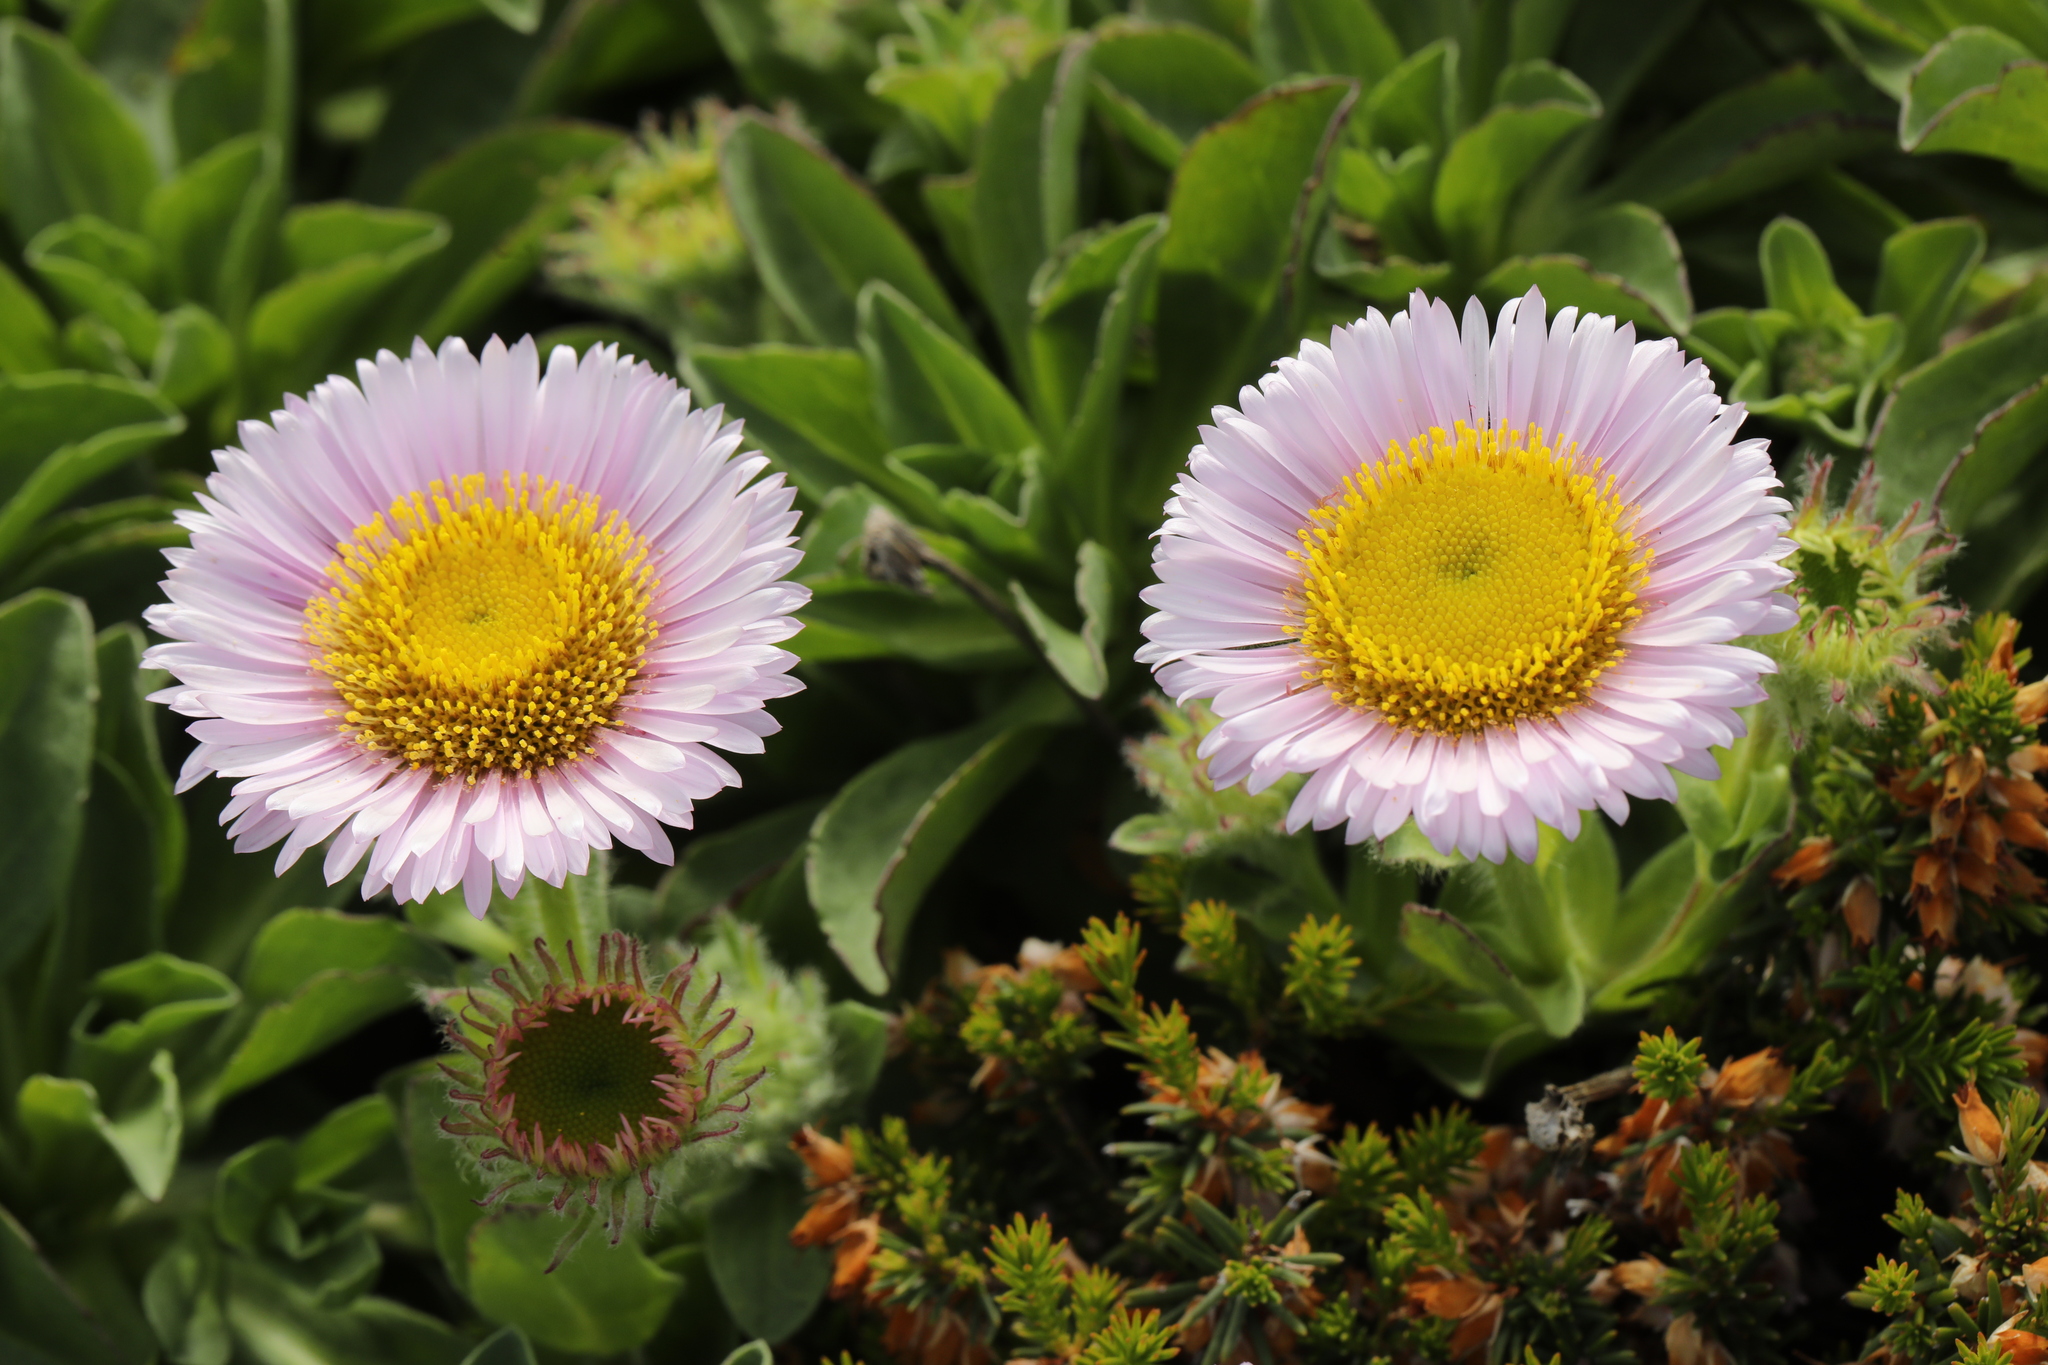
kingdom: Plantae
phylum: Tracheophyta
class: Magnoliopsida
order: Asterales
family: Asteraceae
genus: Erigeron
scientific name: Erigeron glaucus
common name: Seaside daisy
